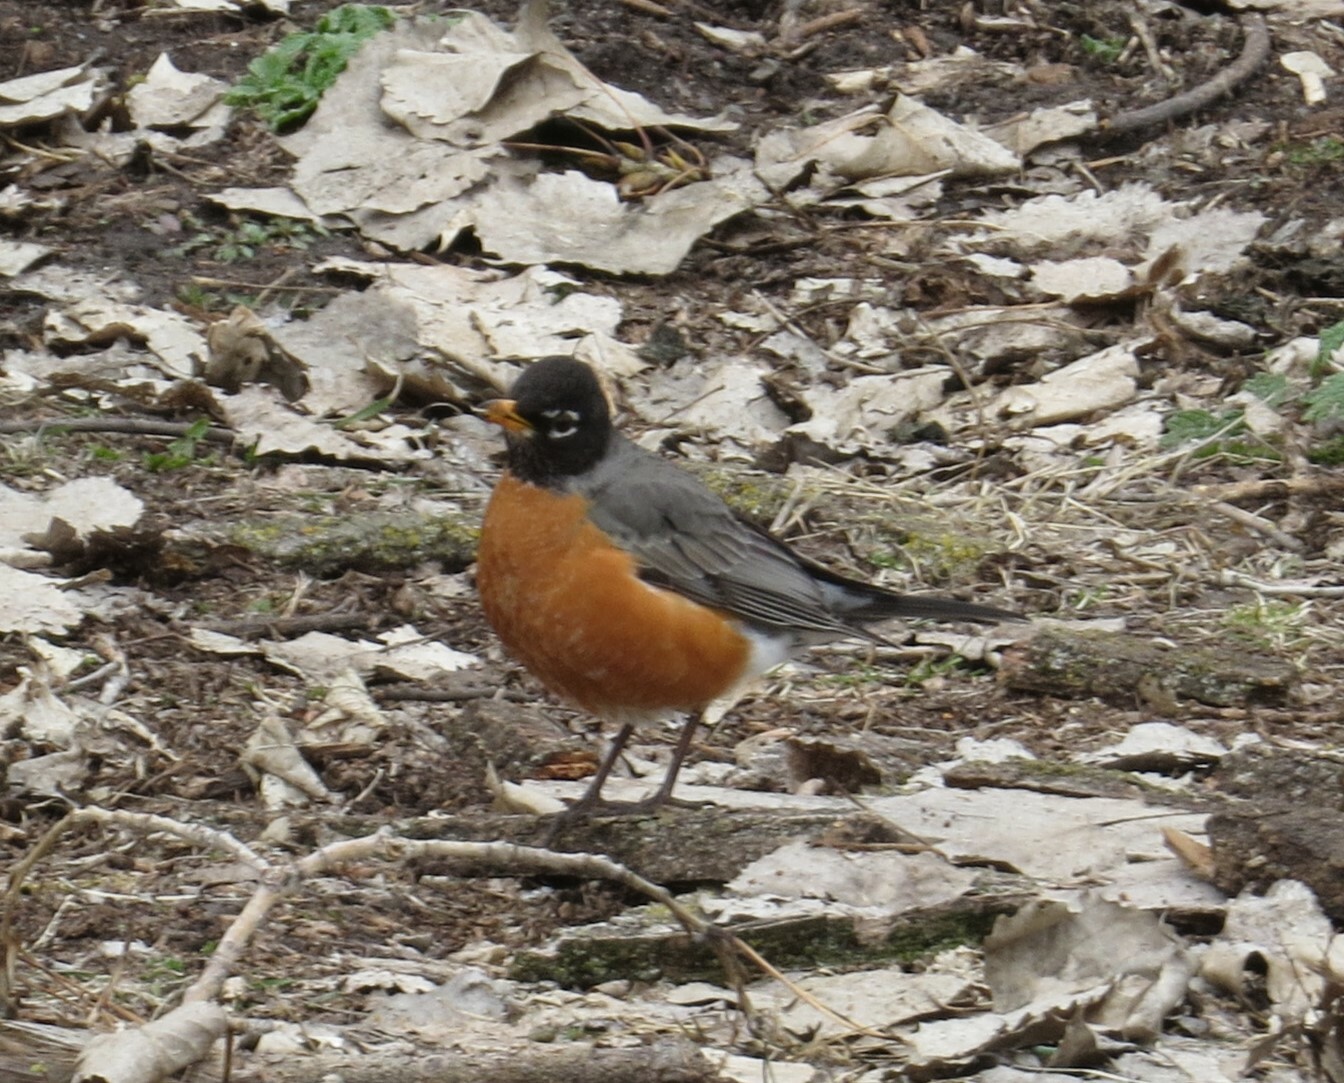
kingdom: Animalia
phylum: Chordata
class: Aves
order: Passeriformes
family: Turdidae
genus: Turdus
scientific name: Turdus migratorius
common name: American robin
